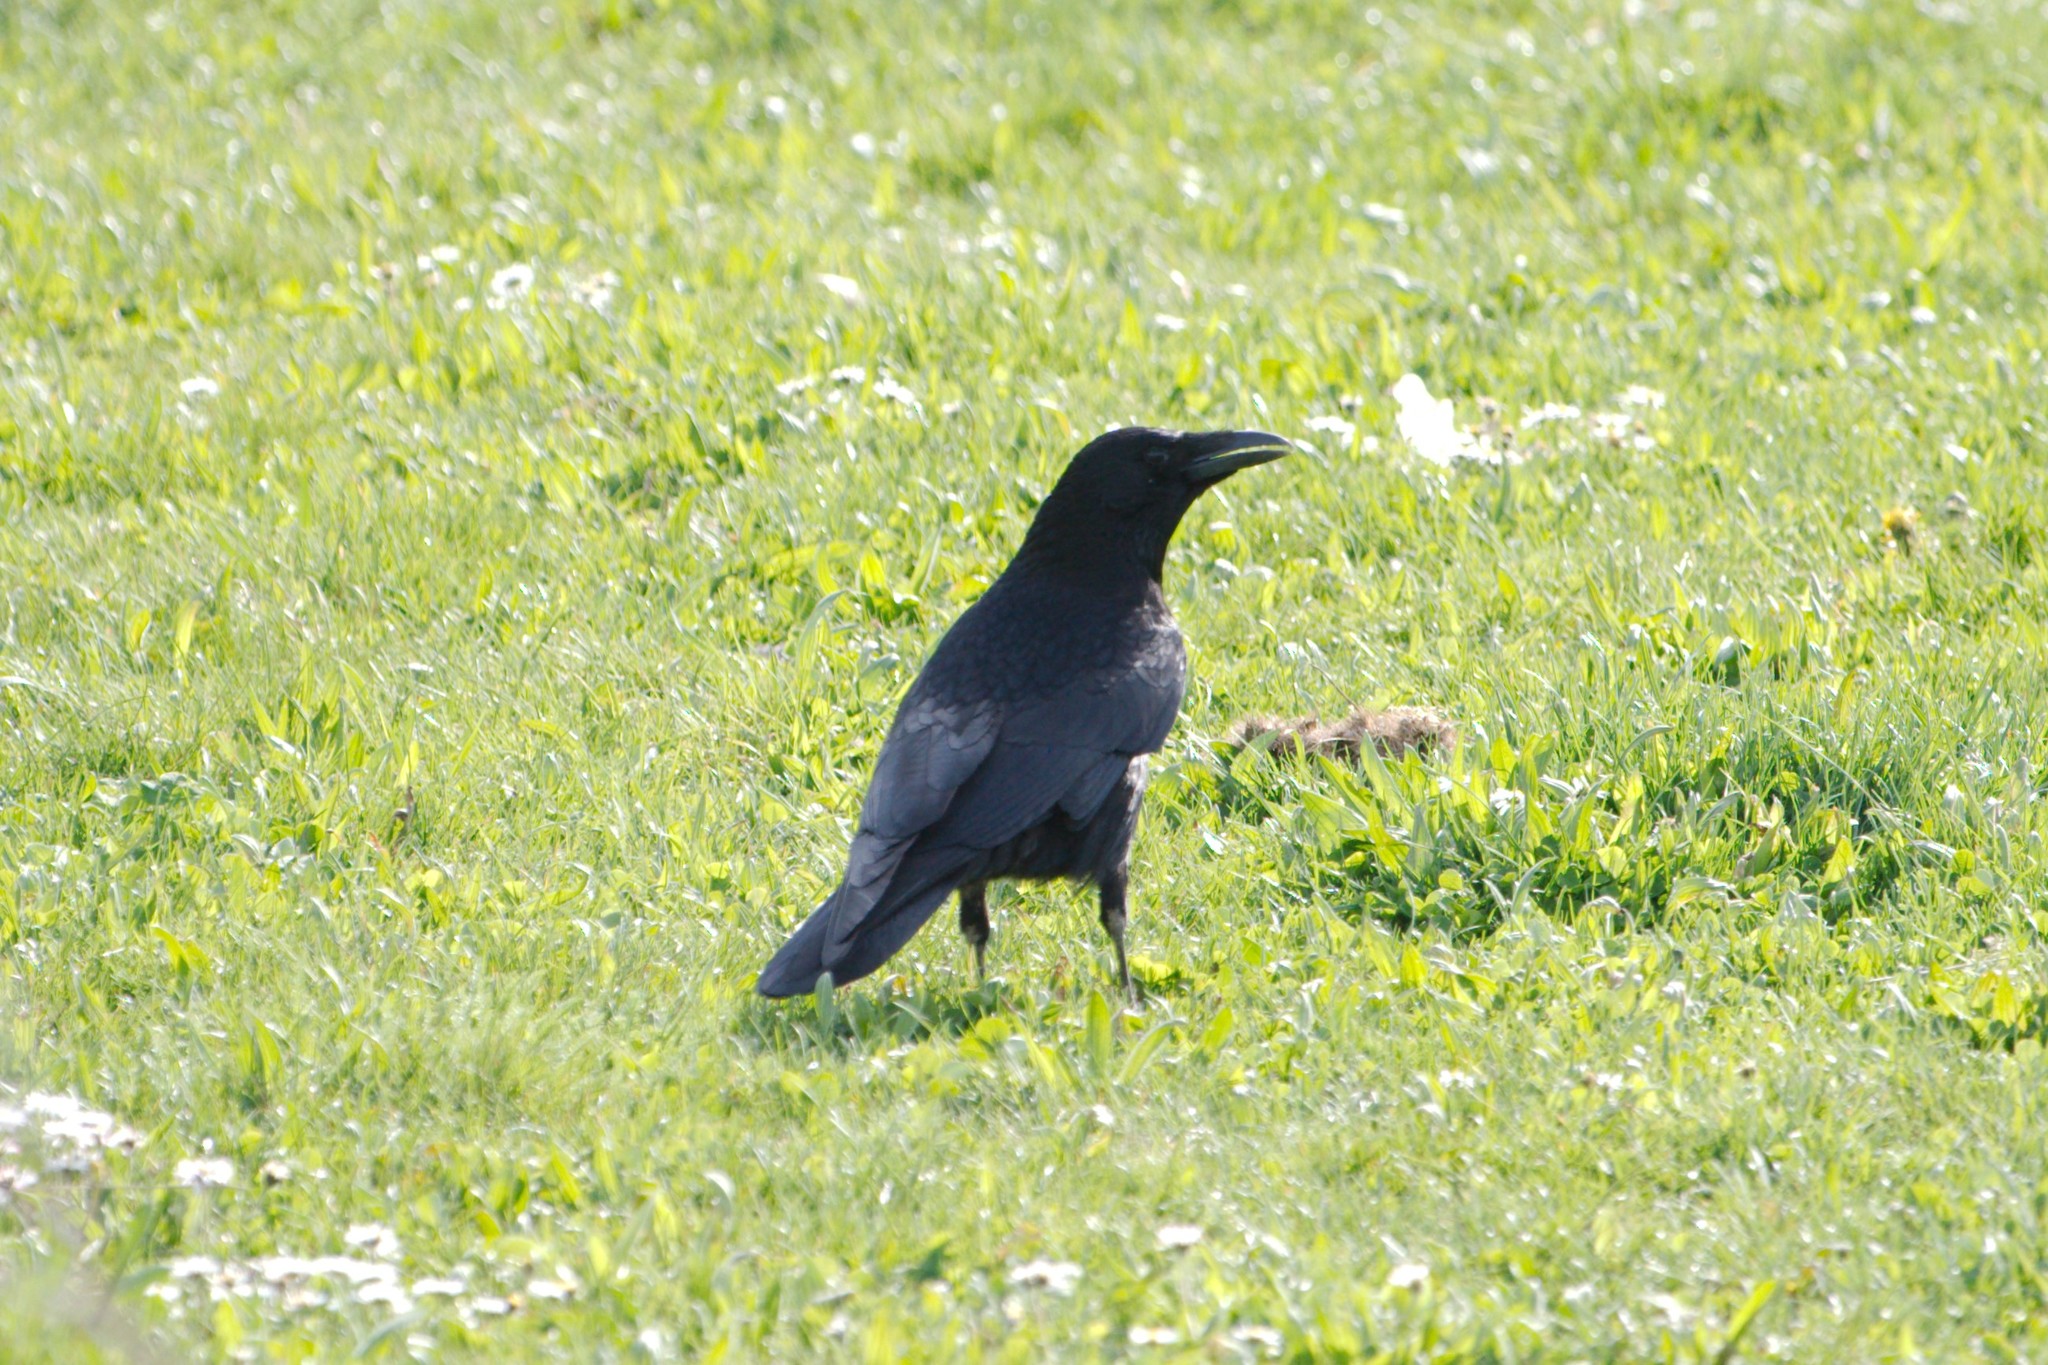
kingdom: Animalia
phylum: Chordata
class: Aves
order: Passeriformes
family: Corvidae
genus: Corvus
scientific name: Corvus corone
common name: Carrion crow
